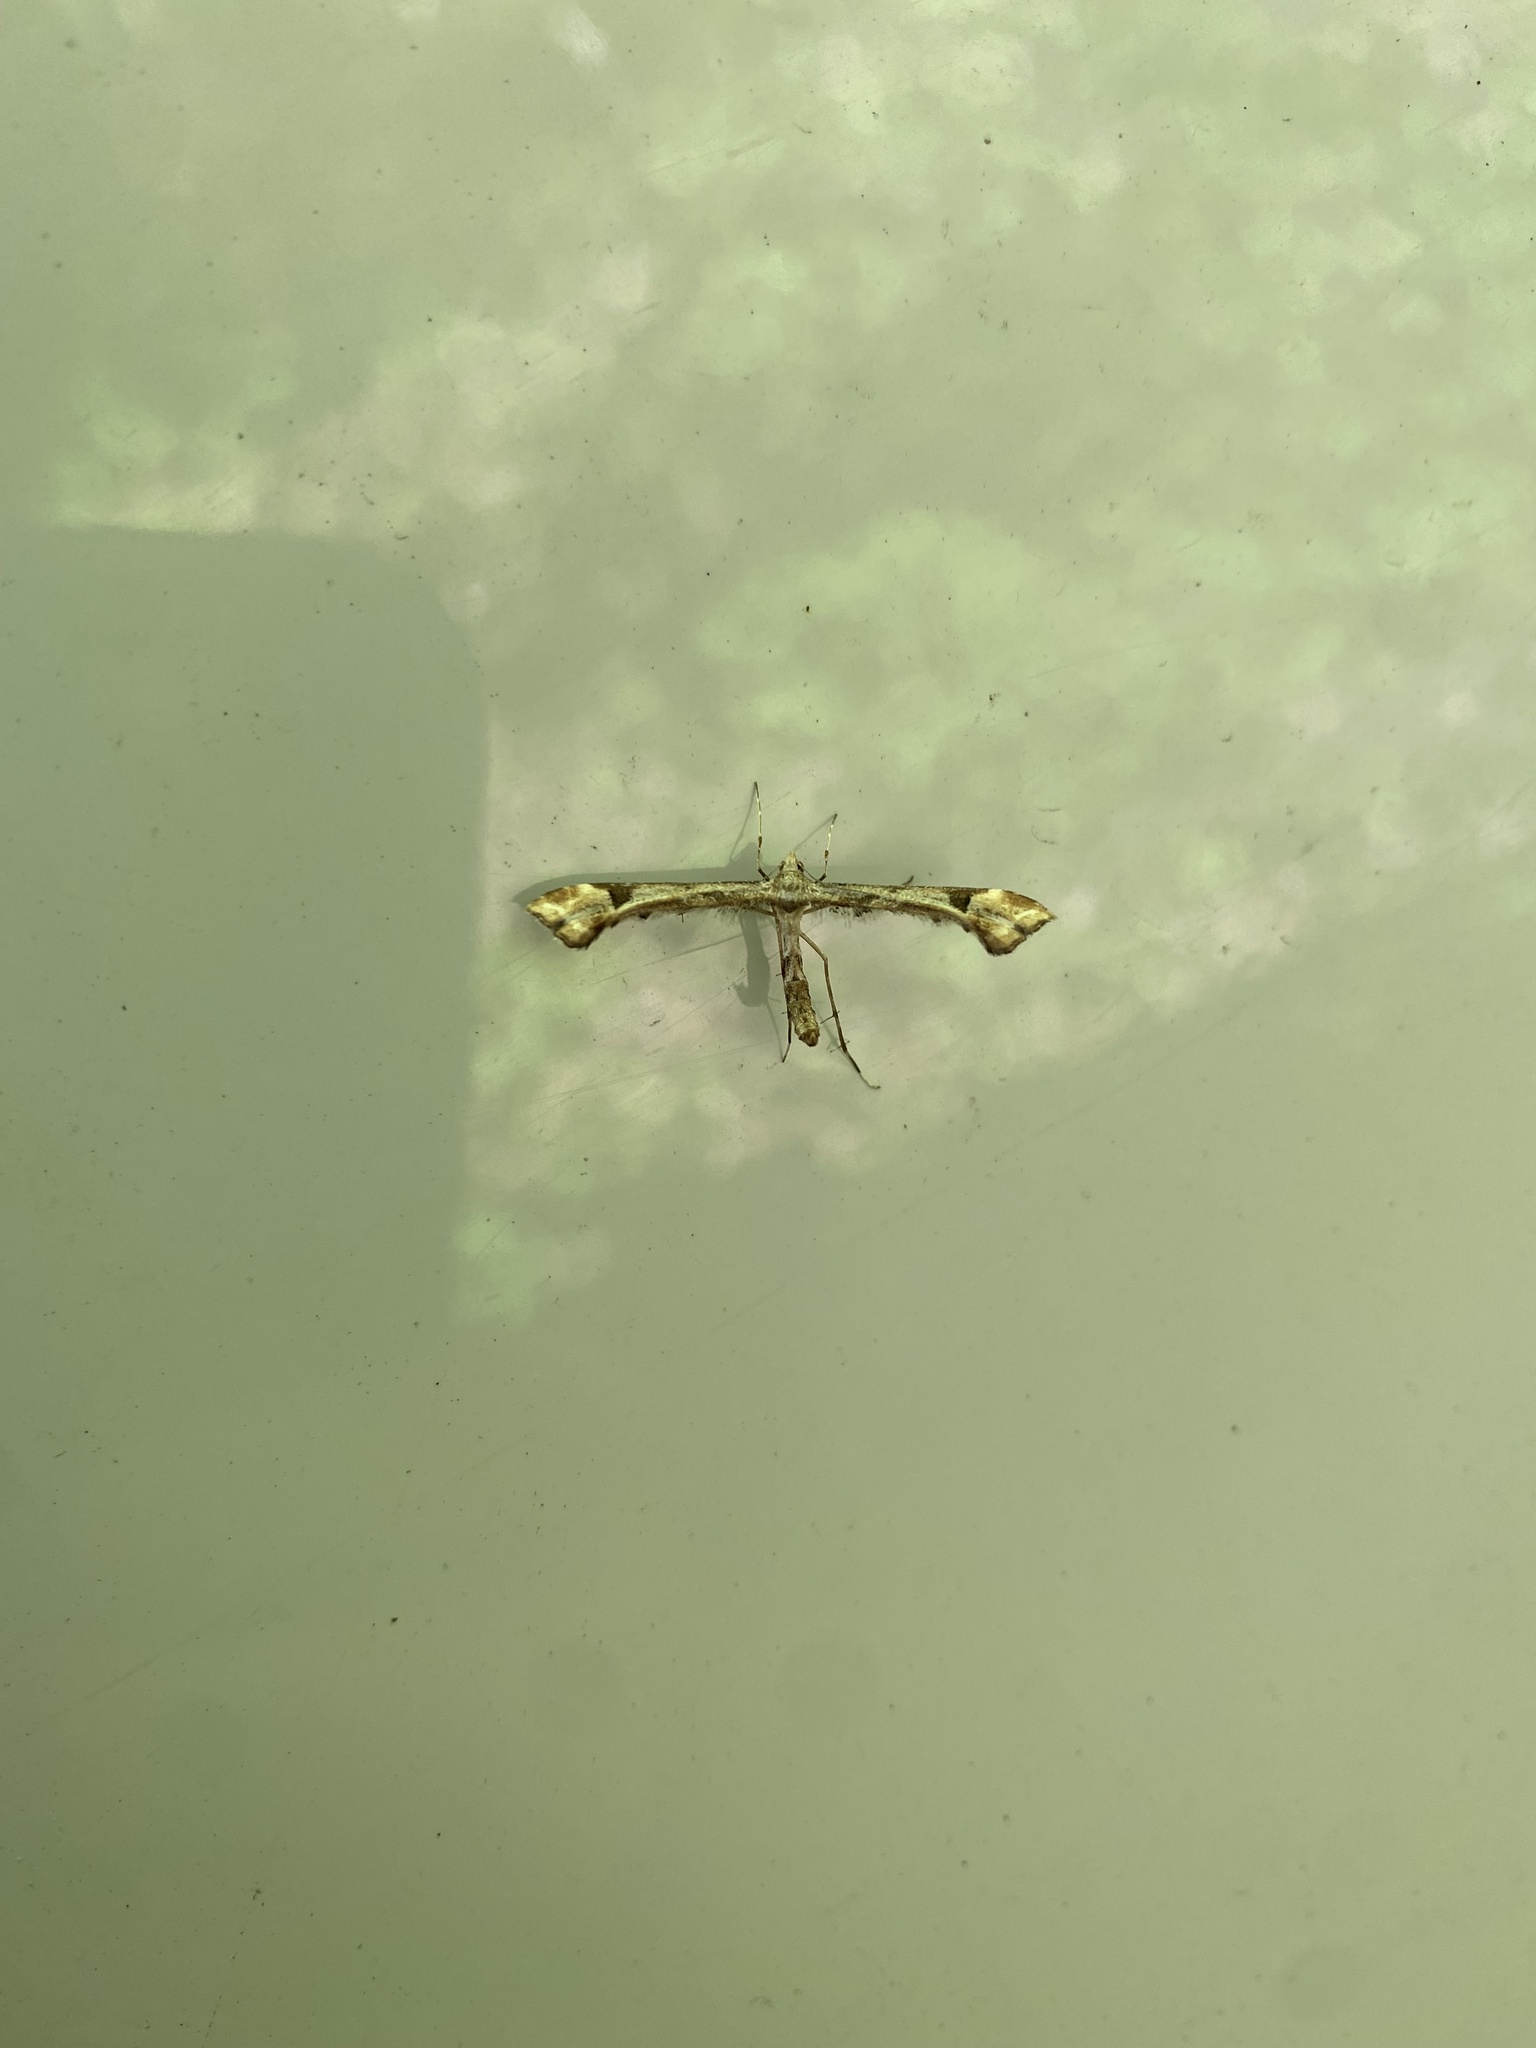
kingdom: Animalia
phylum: Arthropoda
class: Insecta
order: Lepidoptera
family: Pterophoridae
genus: Platyptilia
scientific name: Platyptilia carduidactylus
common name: Artichoke plume moth
